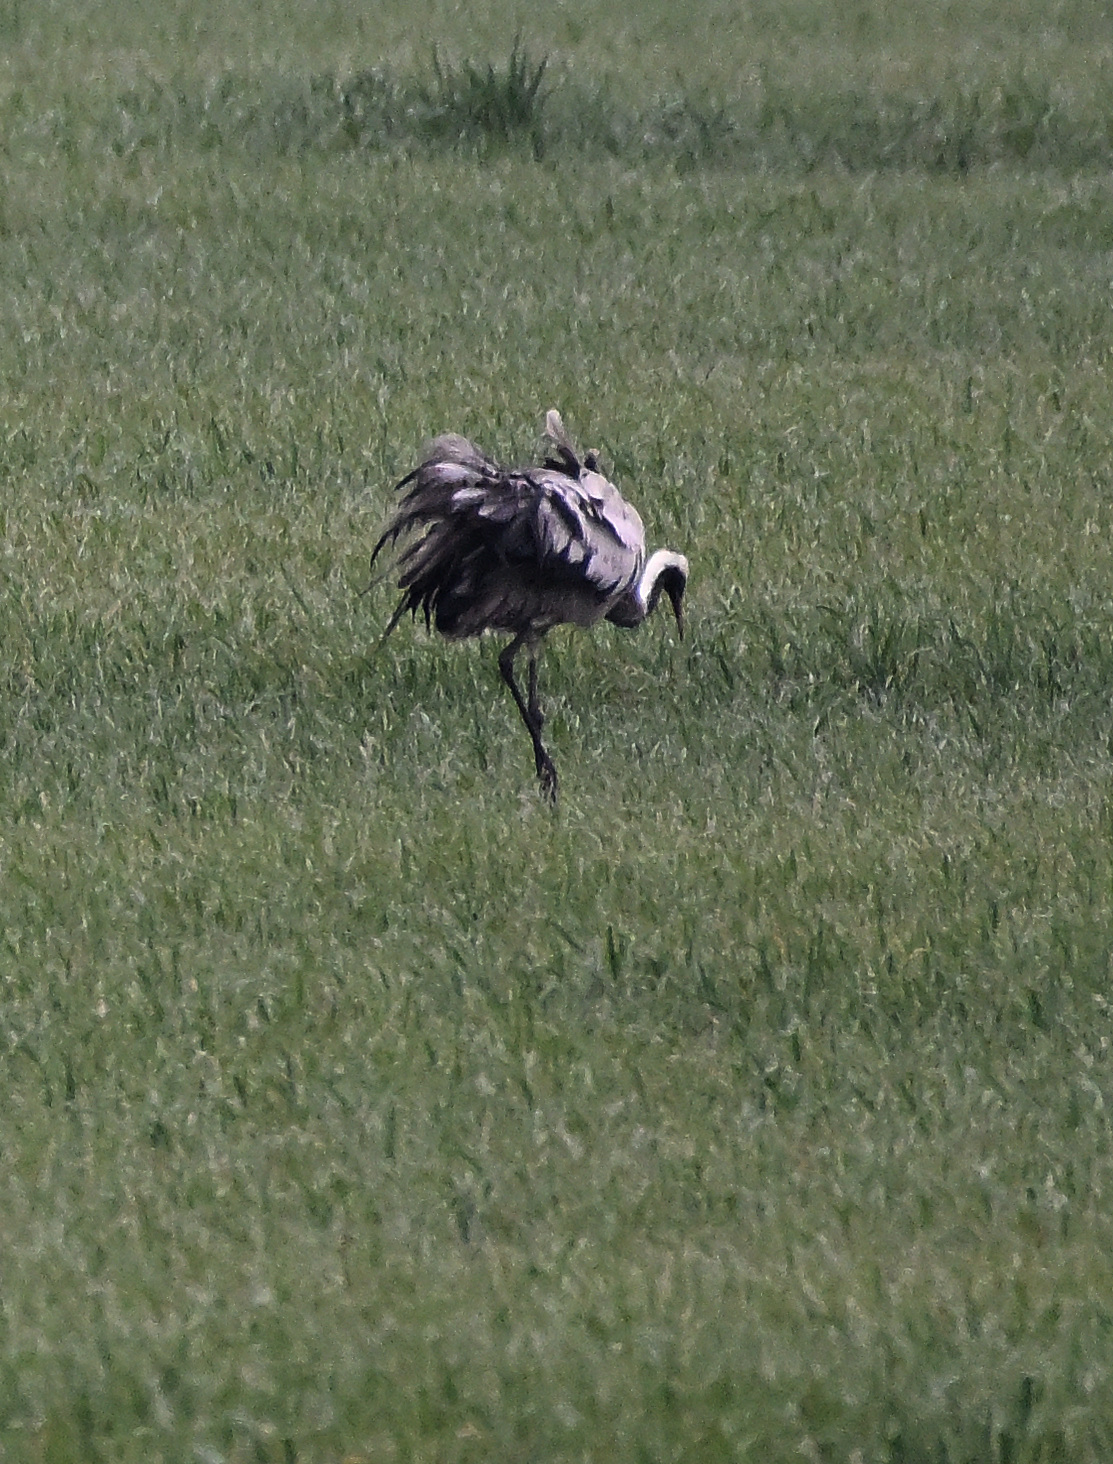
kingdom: Animalia
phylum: Chordata
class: Aves
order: Gruiformes
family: Gruidae
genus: Grus
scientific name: Grus grus
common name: Common crane
